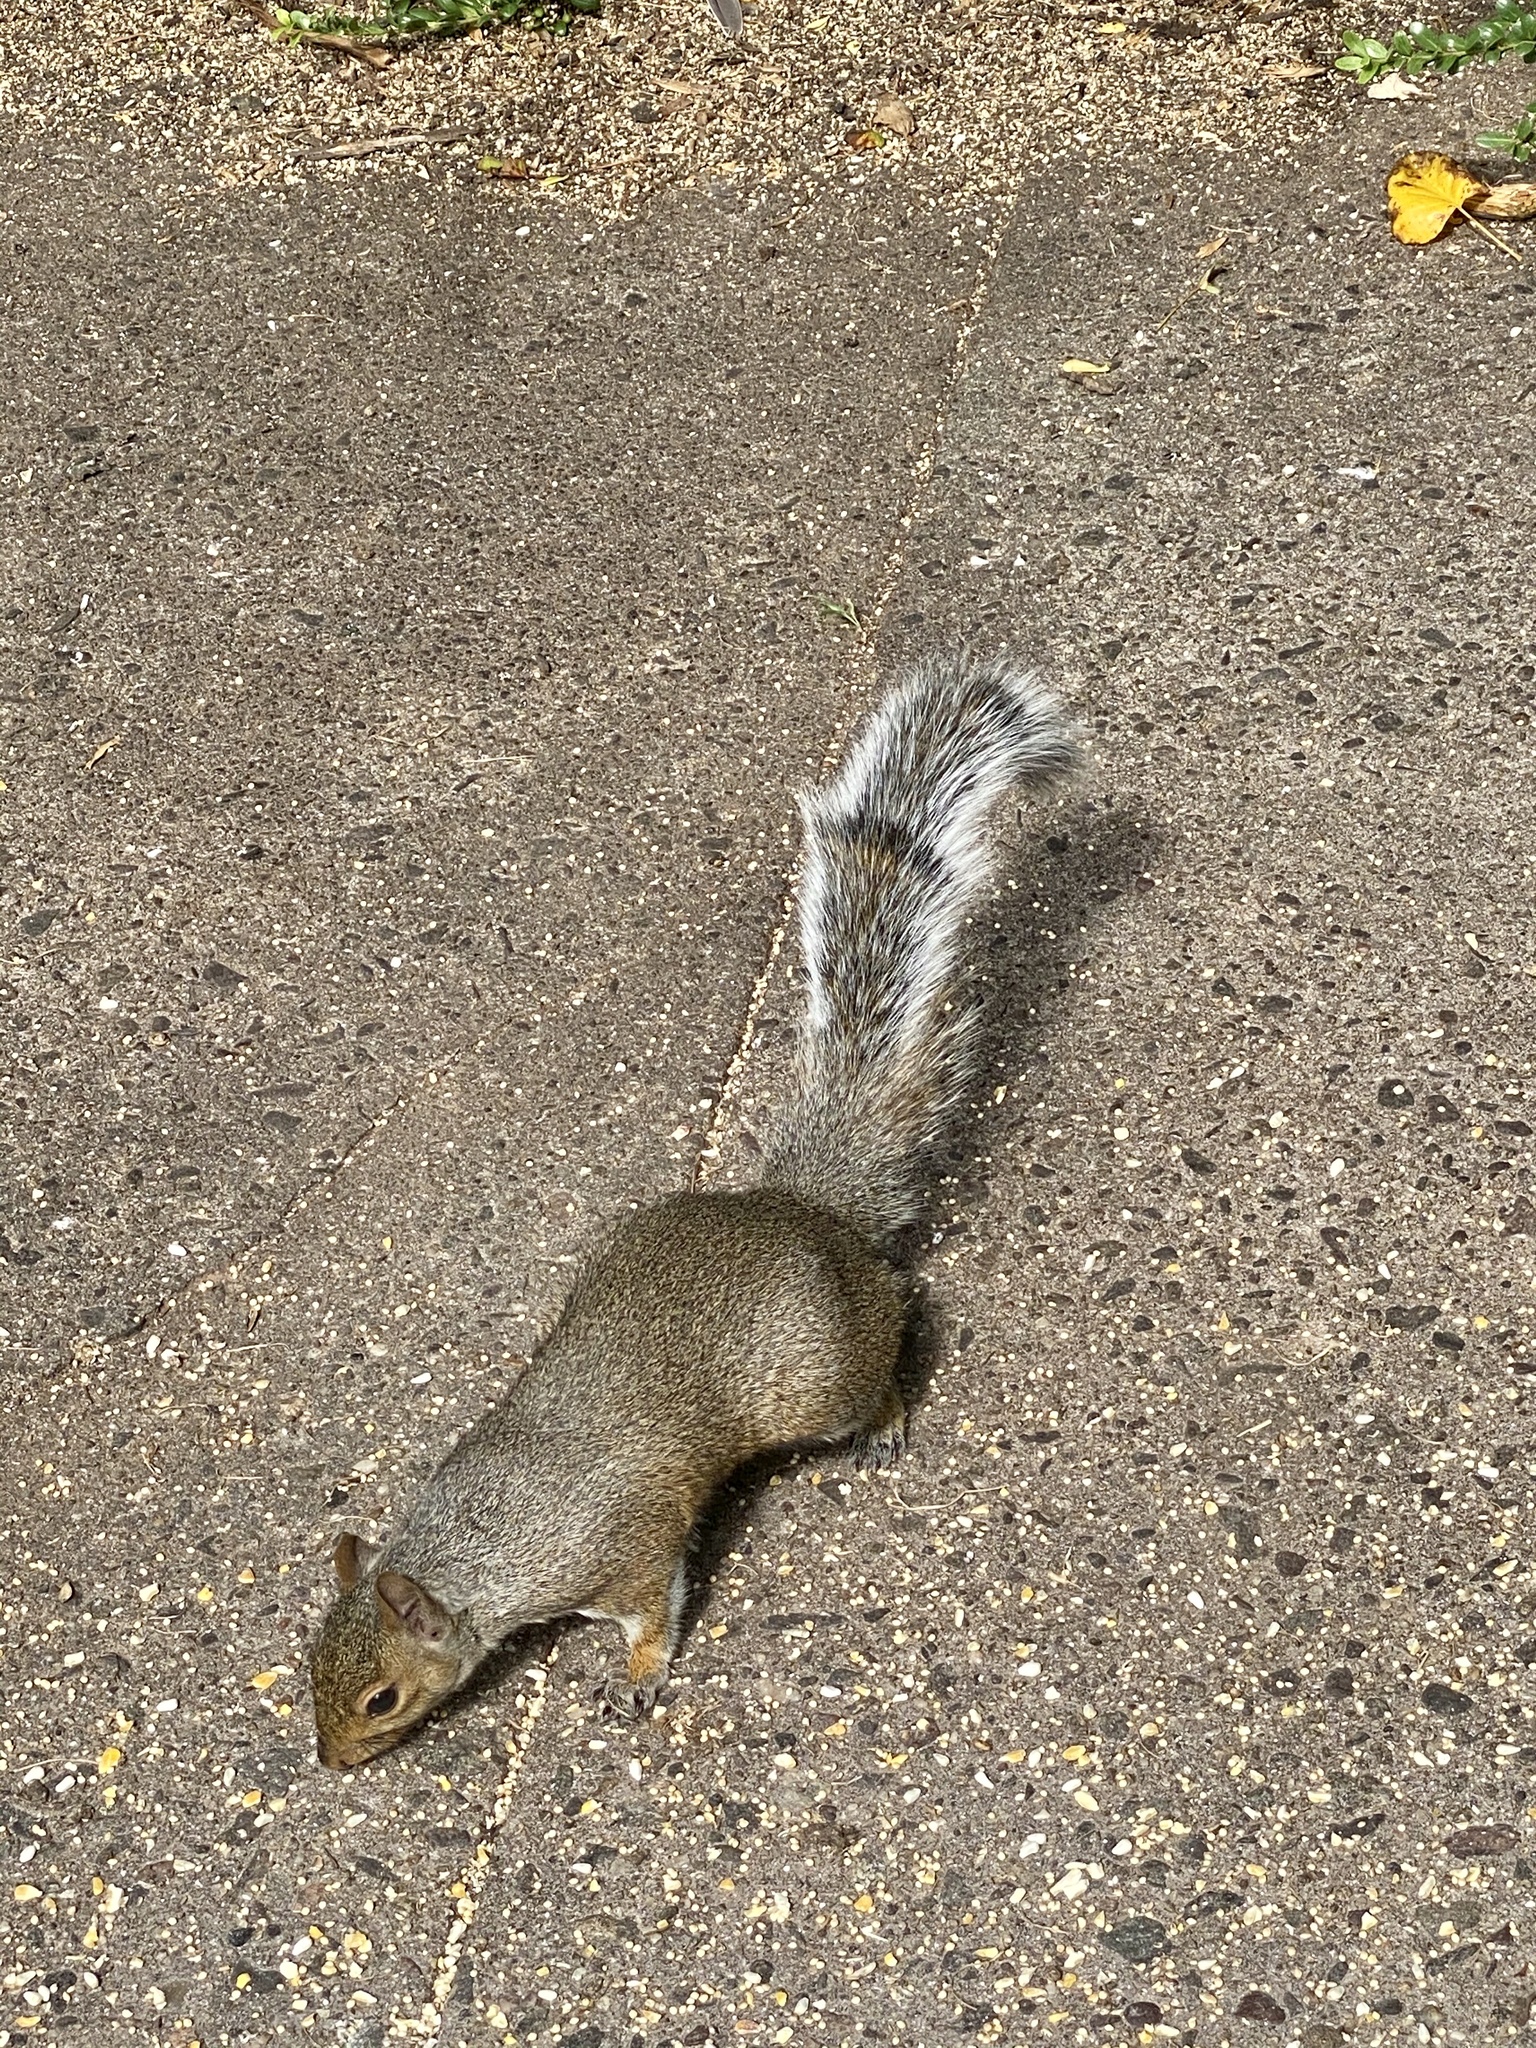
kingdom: Animalia
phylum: Chordata
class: Mammalia
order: Rodentia
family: Sciuridae
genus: Sciurus
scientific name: Sciurus carolinensis
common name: Eastern gray squirrel
